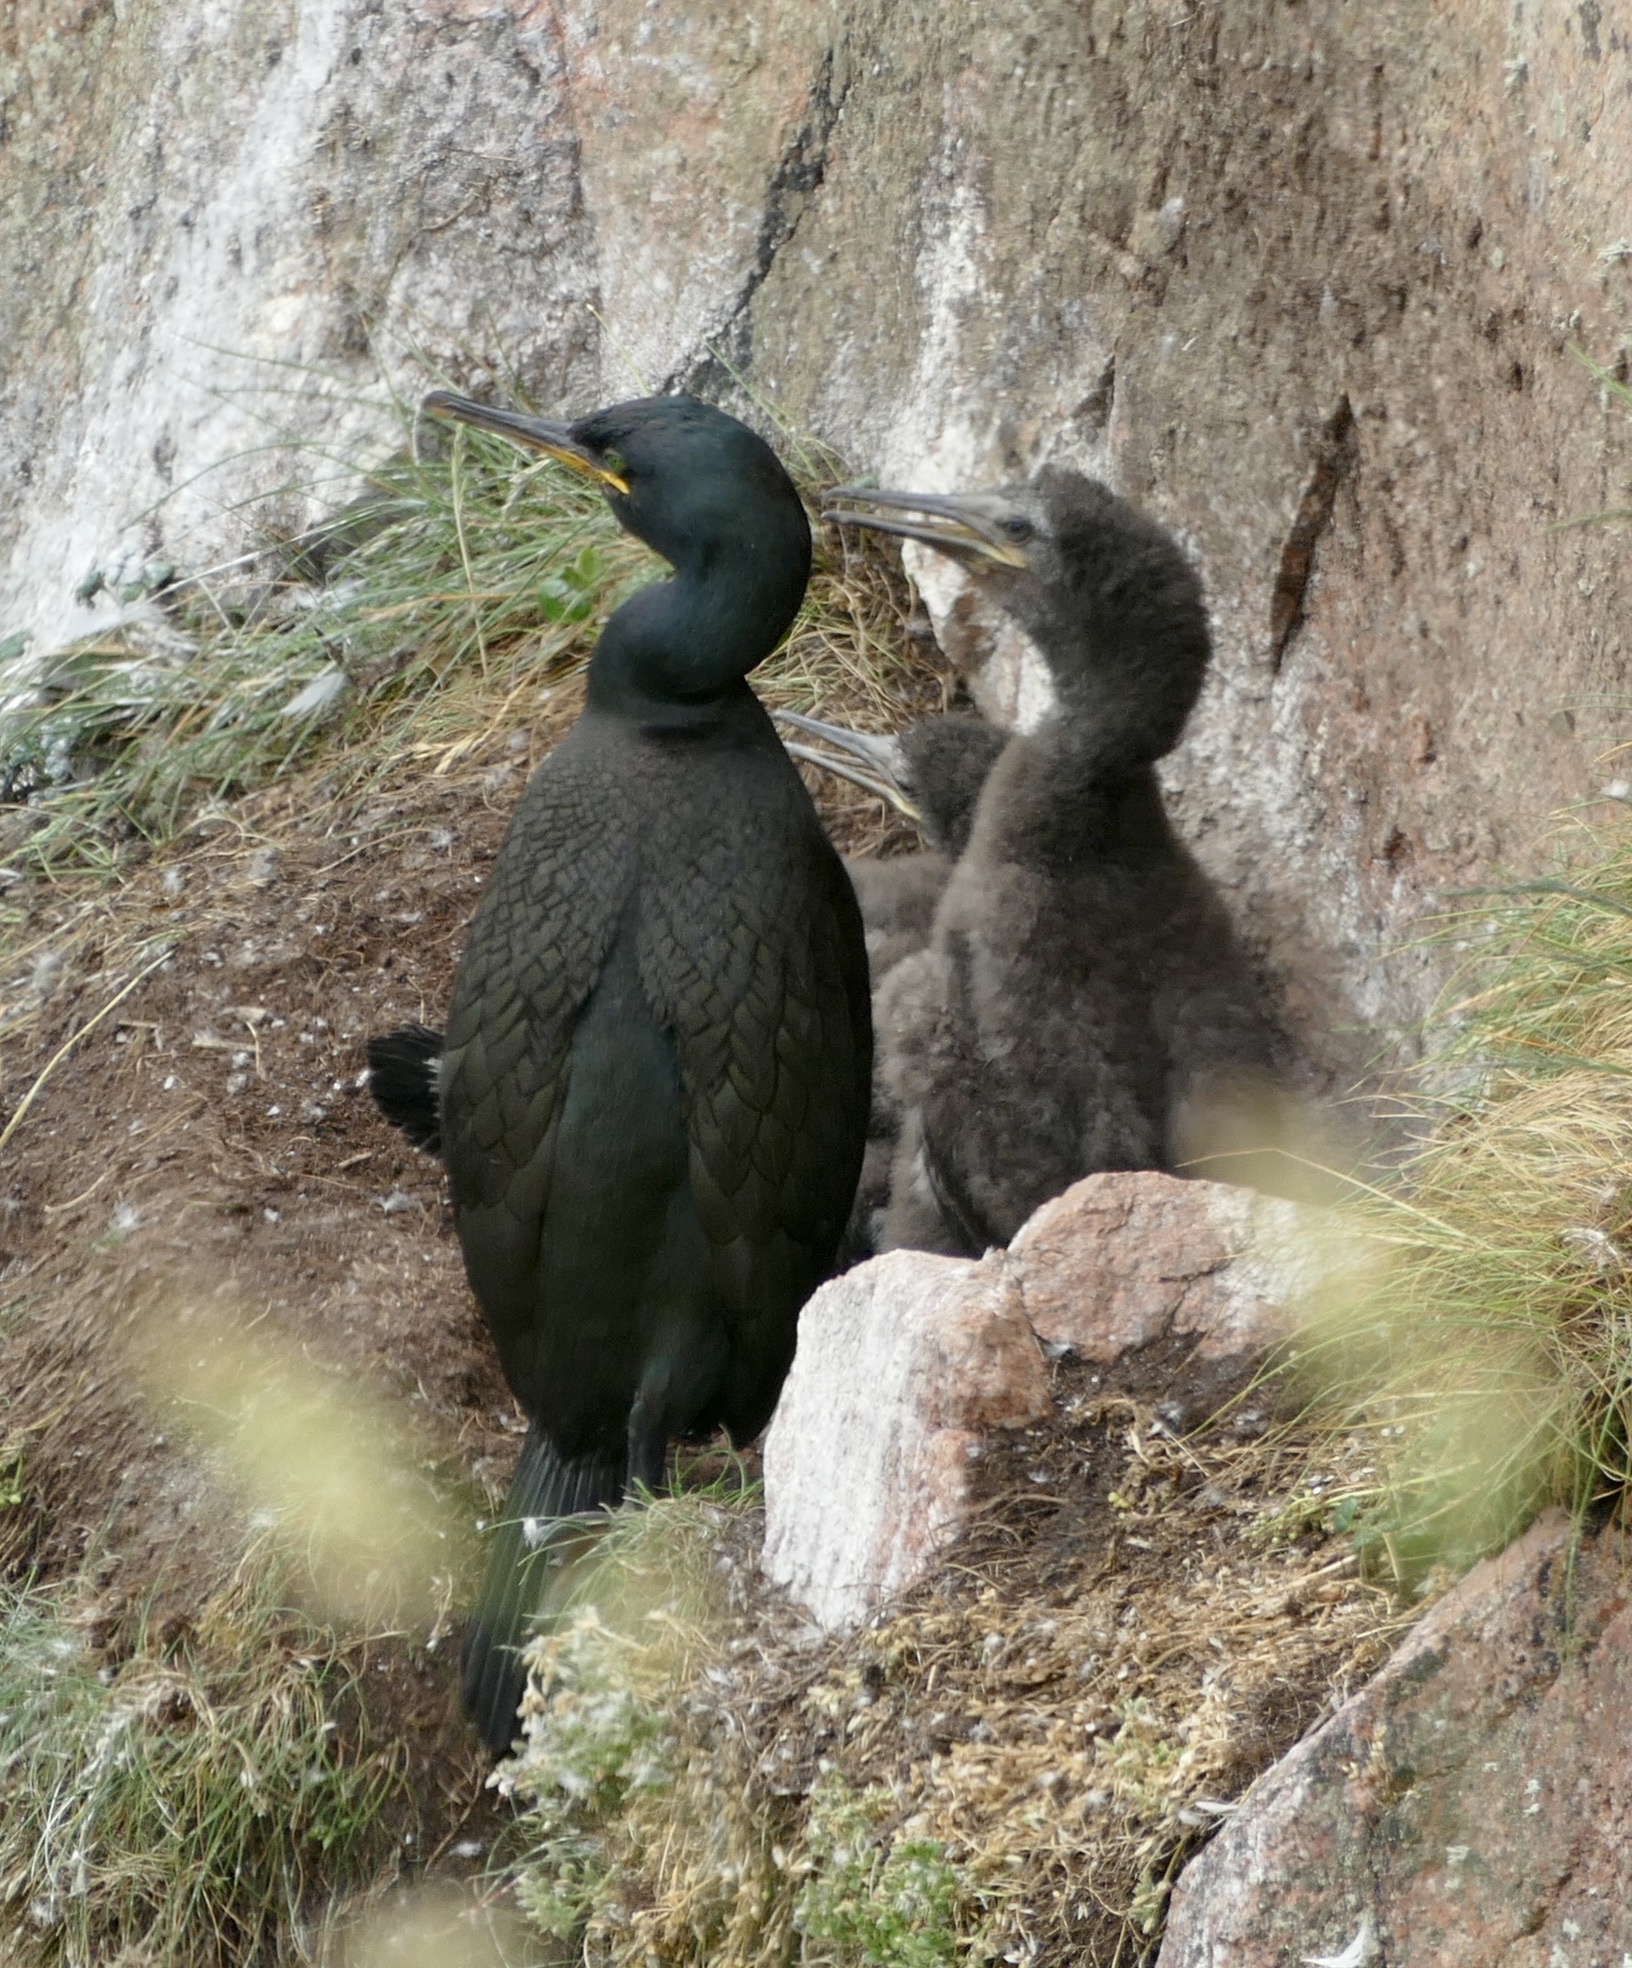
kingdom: Animalia
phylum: Chordata
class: Aves
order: Suliformes
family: Phalacrocoracidae
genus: Phalacrocorax
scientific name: Phalacrocorax aristotelis
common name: European shag
